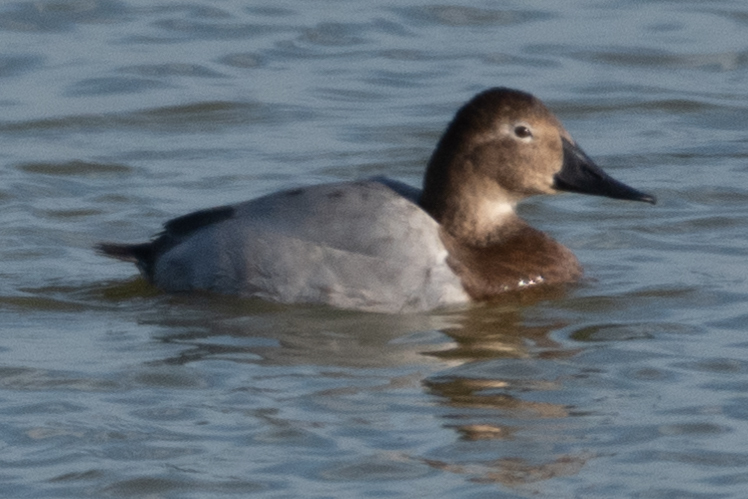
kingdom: Animalia
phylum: Chordata
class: Aves
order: Anseriformes
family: Anatidae
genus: Aythya
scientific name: Aythya valisineria
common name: Canvasback
